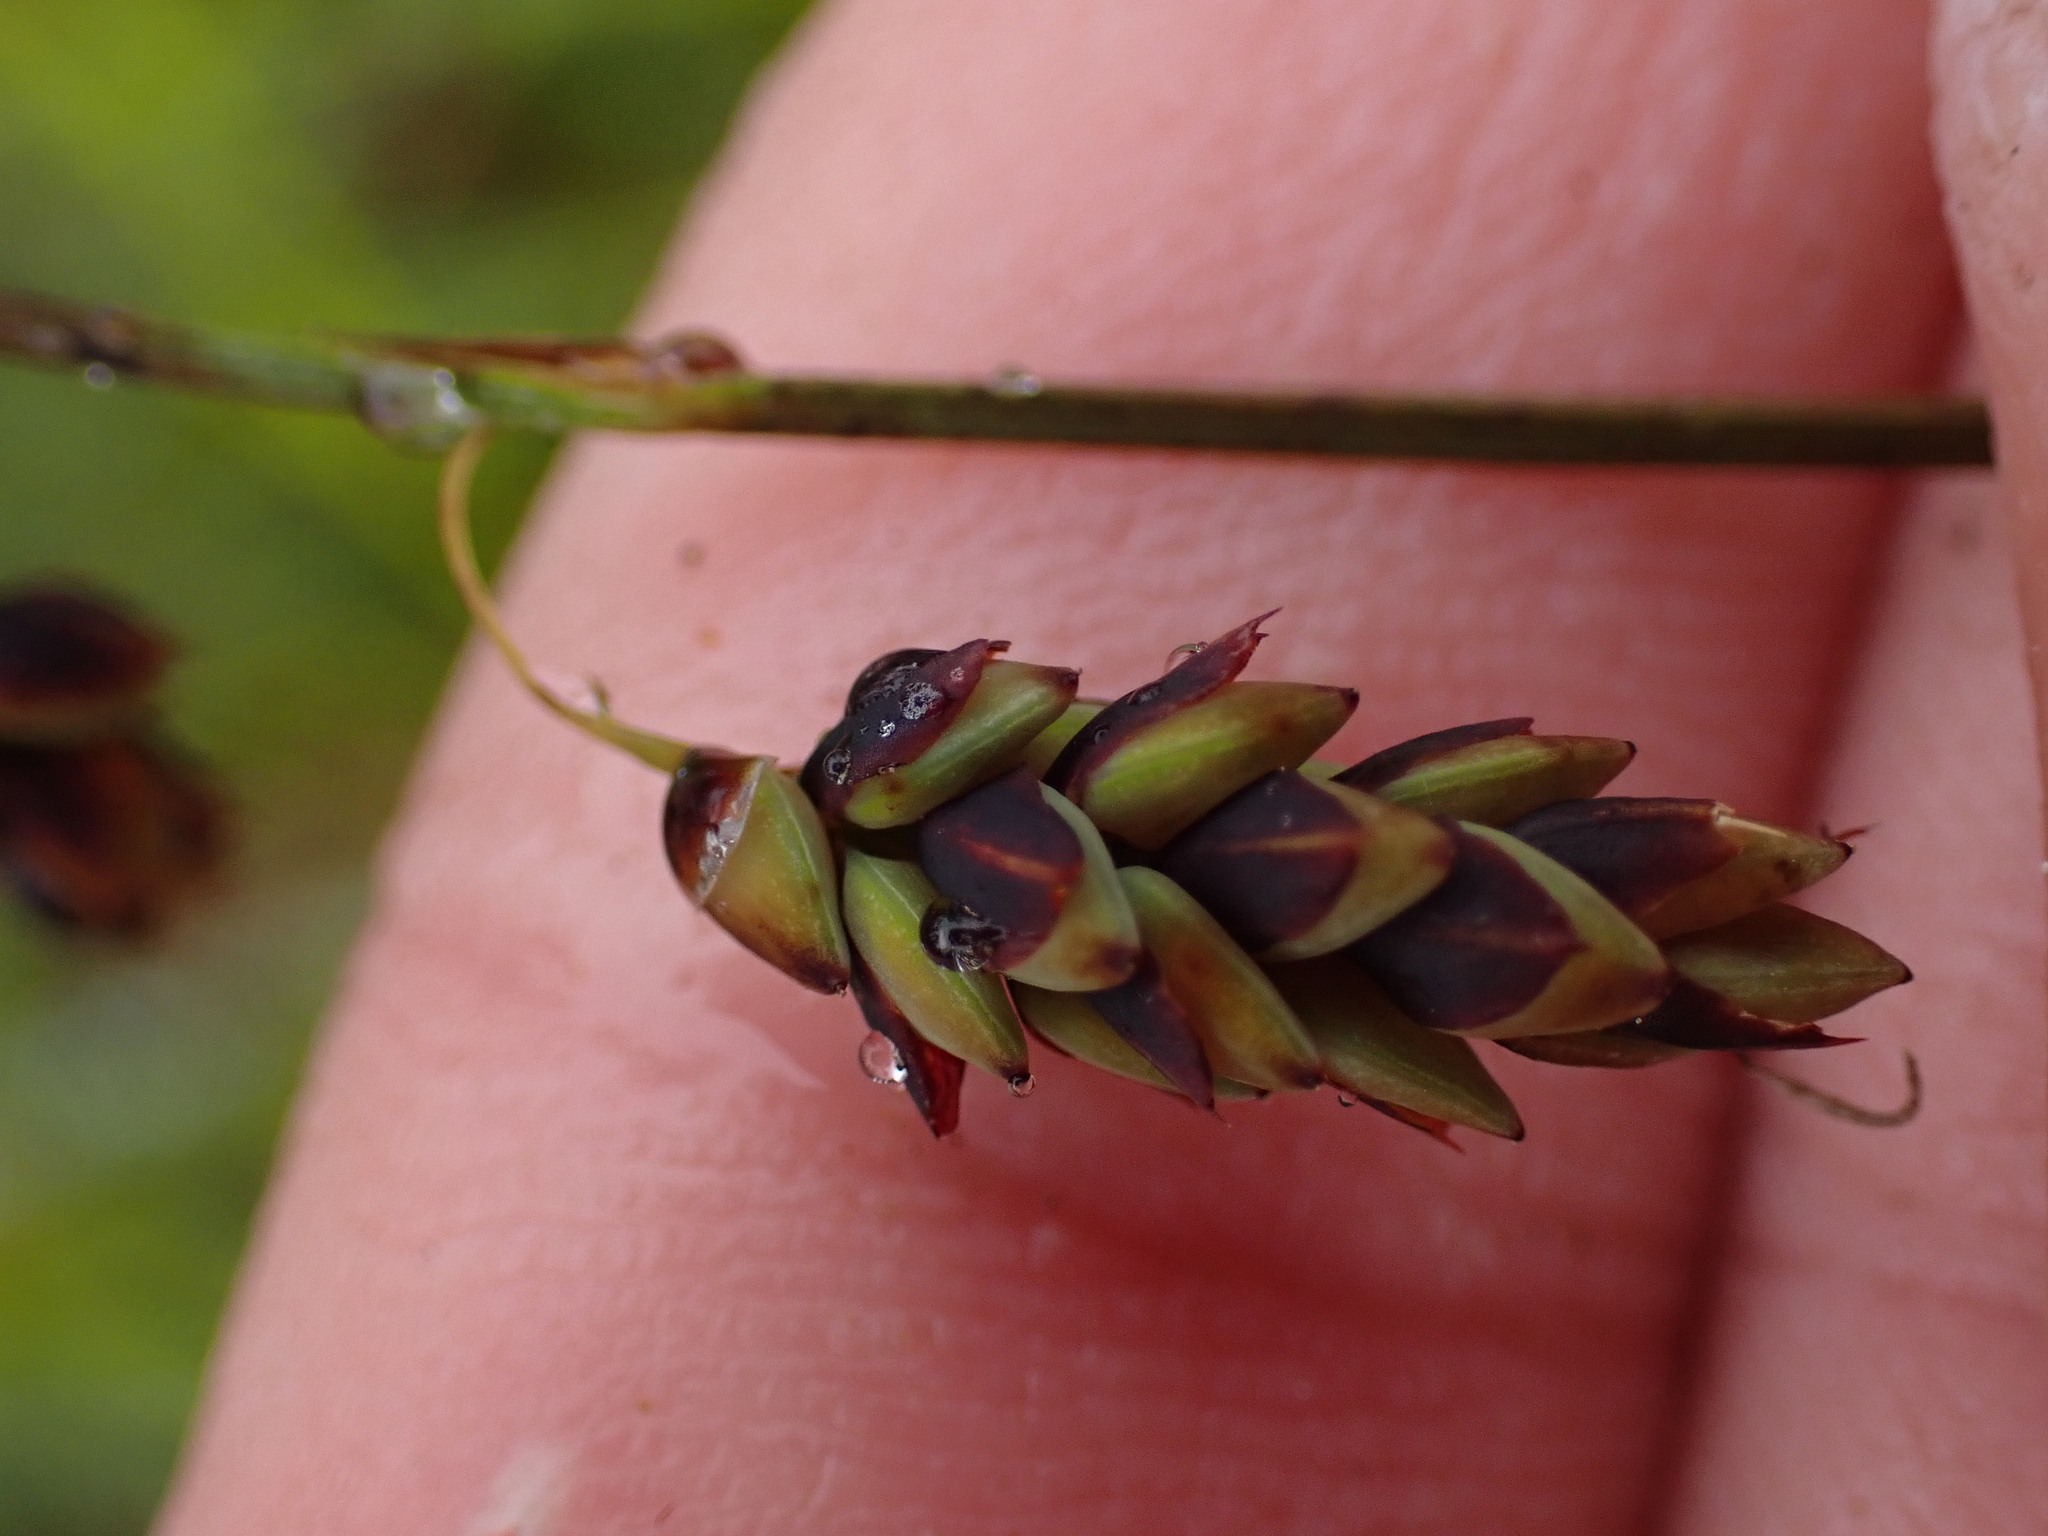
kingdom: Plantae
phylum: Tracheophyta
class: Liliopsida
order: Poales
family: Cyperaceae
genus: Carex
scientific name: Carex pluriflora
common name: Manyflower sedge
